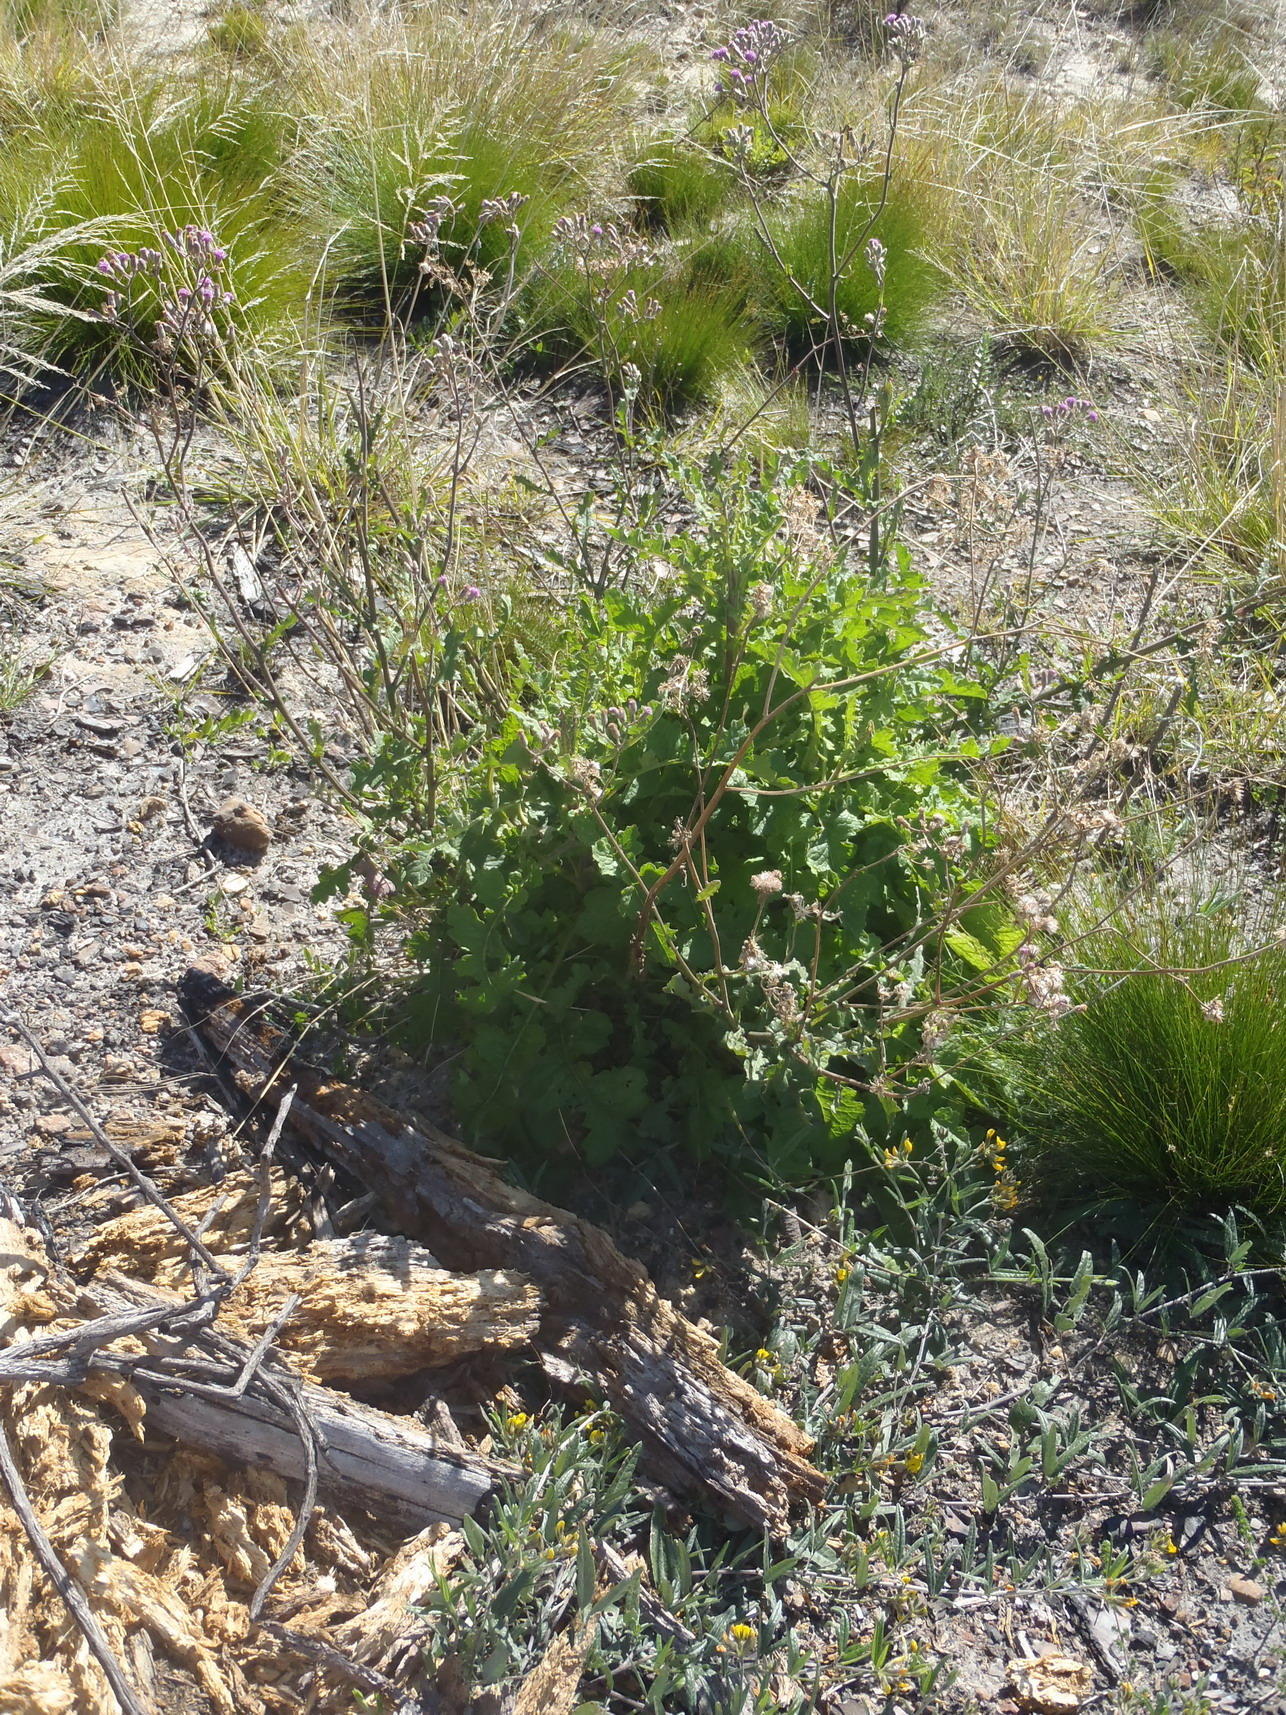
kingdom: Plantae
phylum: Tracheophyta
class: Magnoliopsida
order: Asterales
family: Asteraceae
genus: Senecio
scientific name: Senecio purpureus
